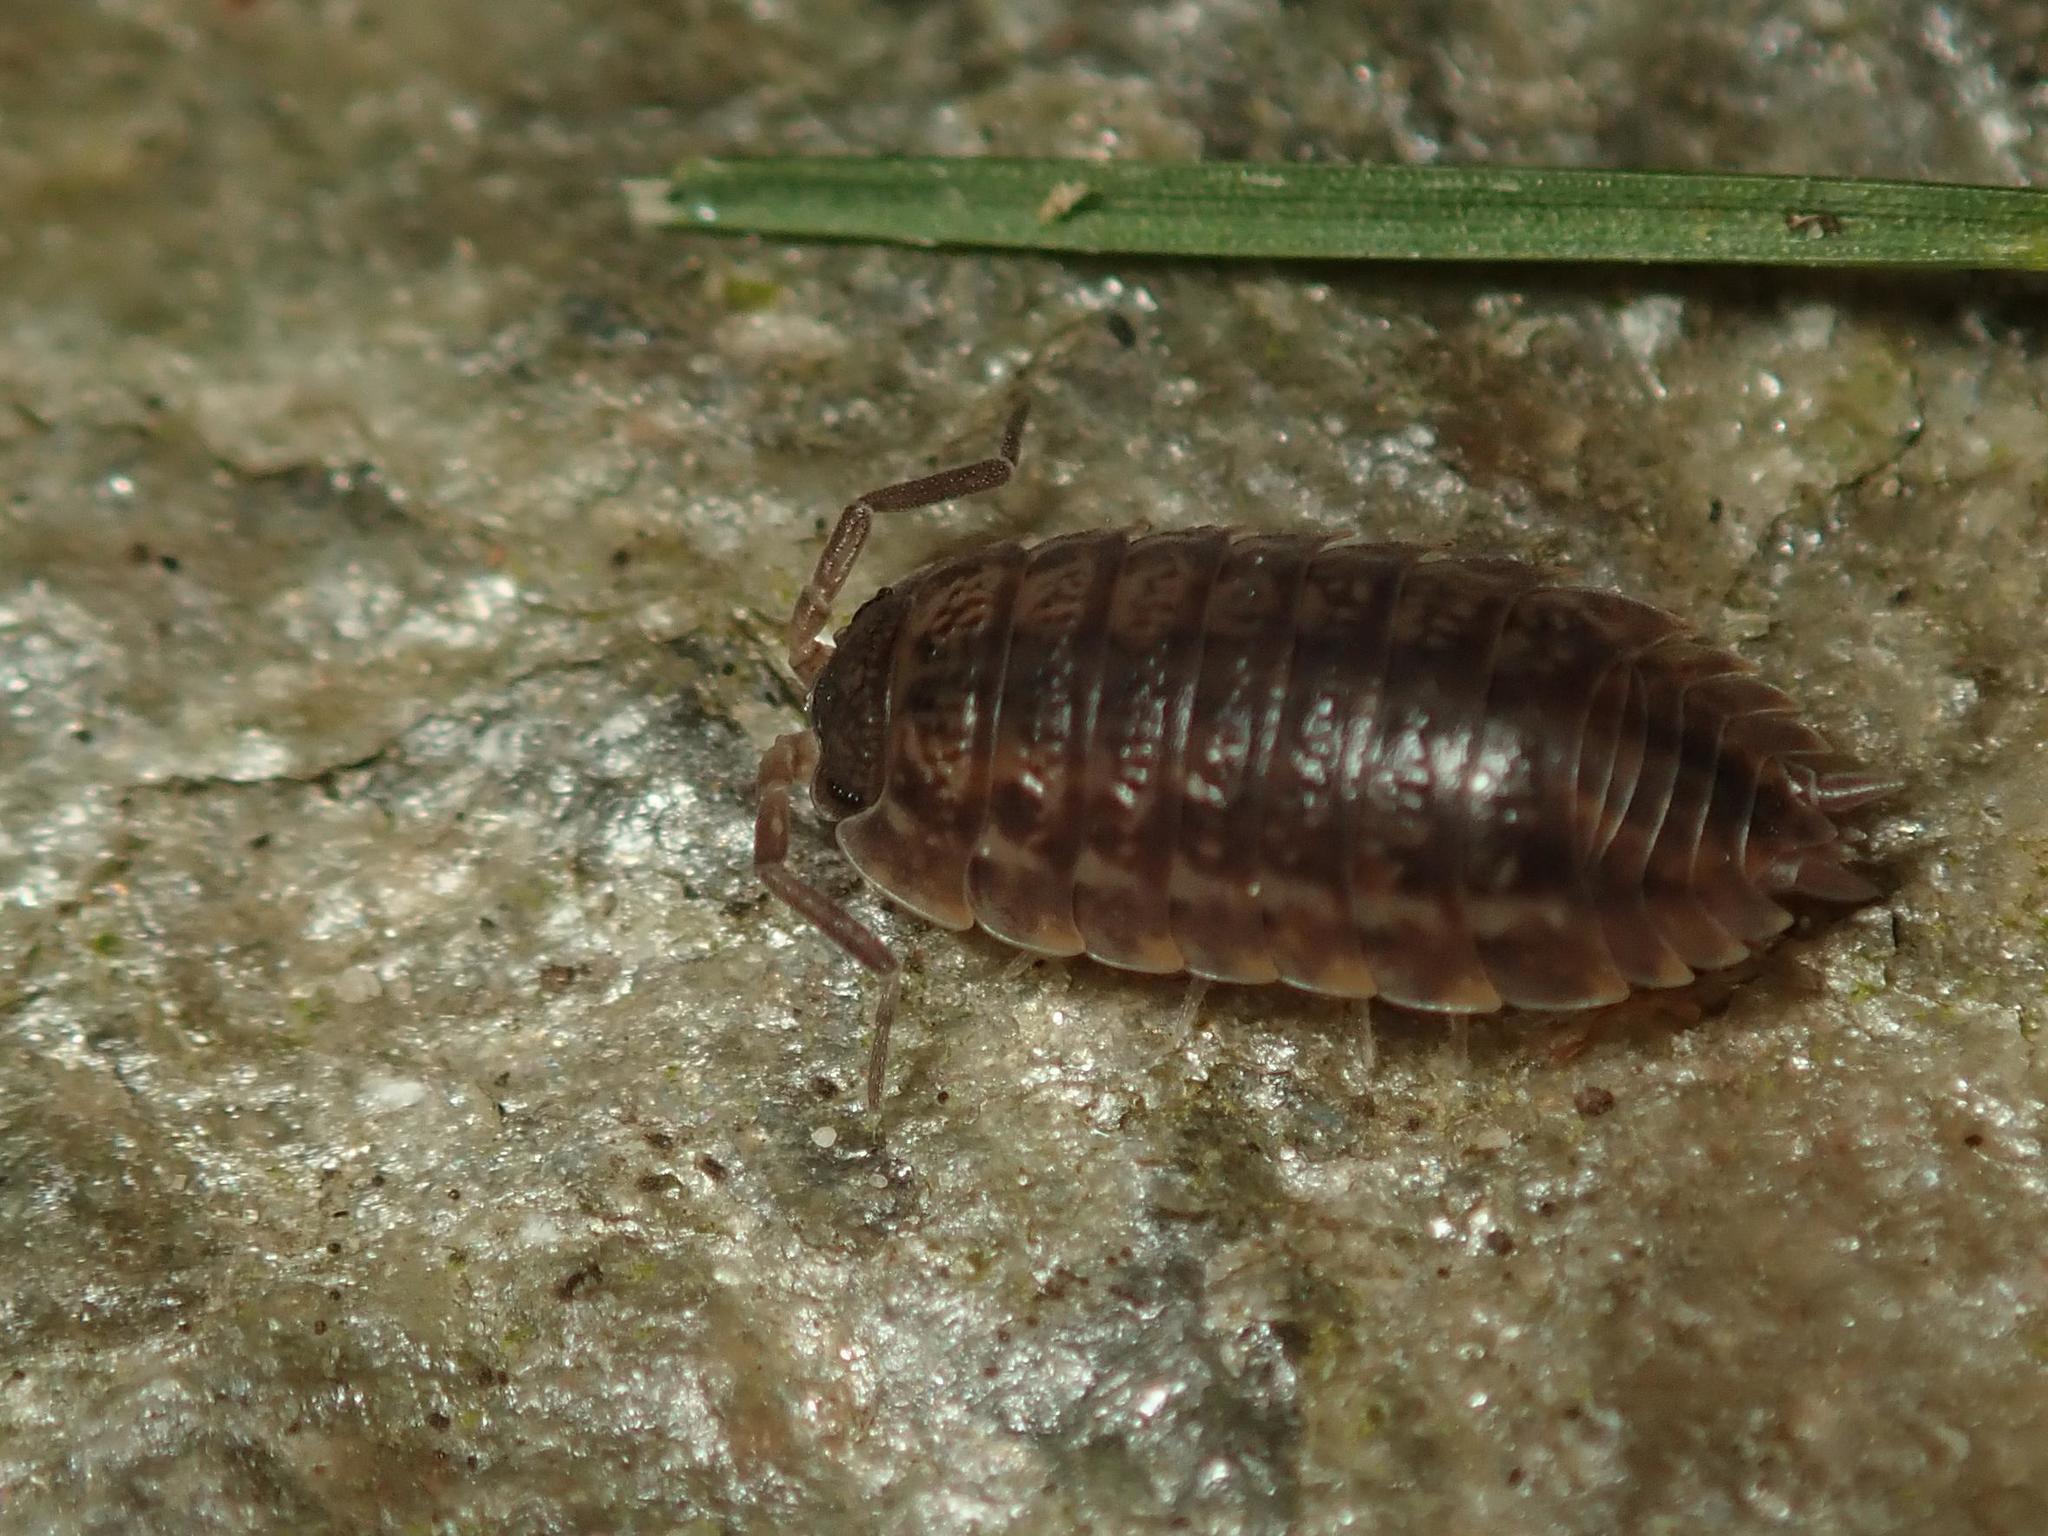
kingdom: Animalia
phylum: Arthropoda
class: Malacostraca
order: Isopoda
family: Trachelipodidae
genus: Trachelipus
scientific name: Trachelipus rathkii
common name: Isopod
